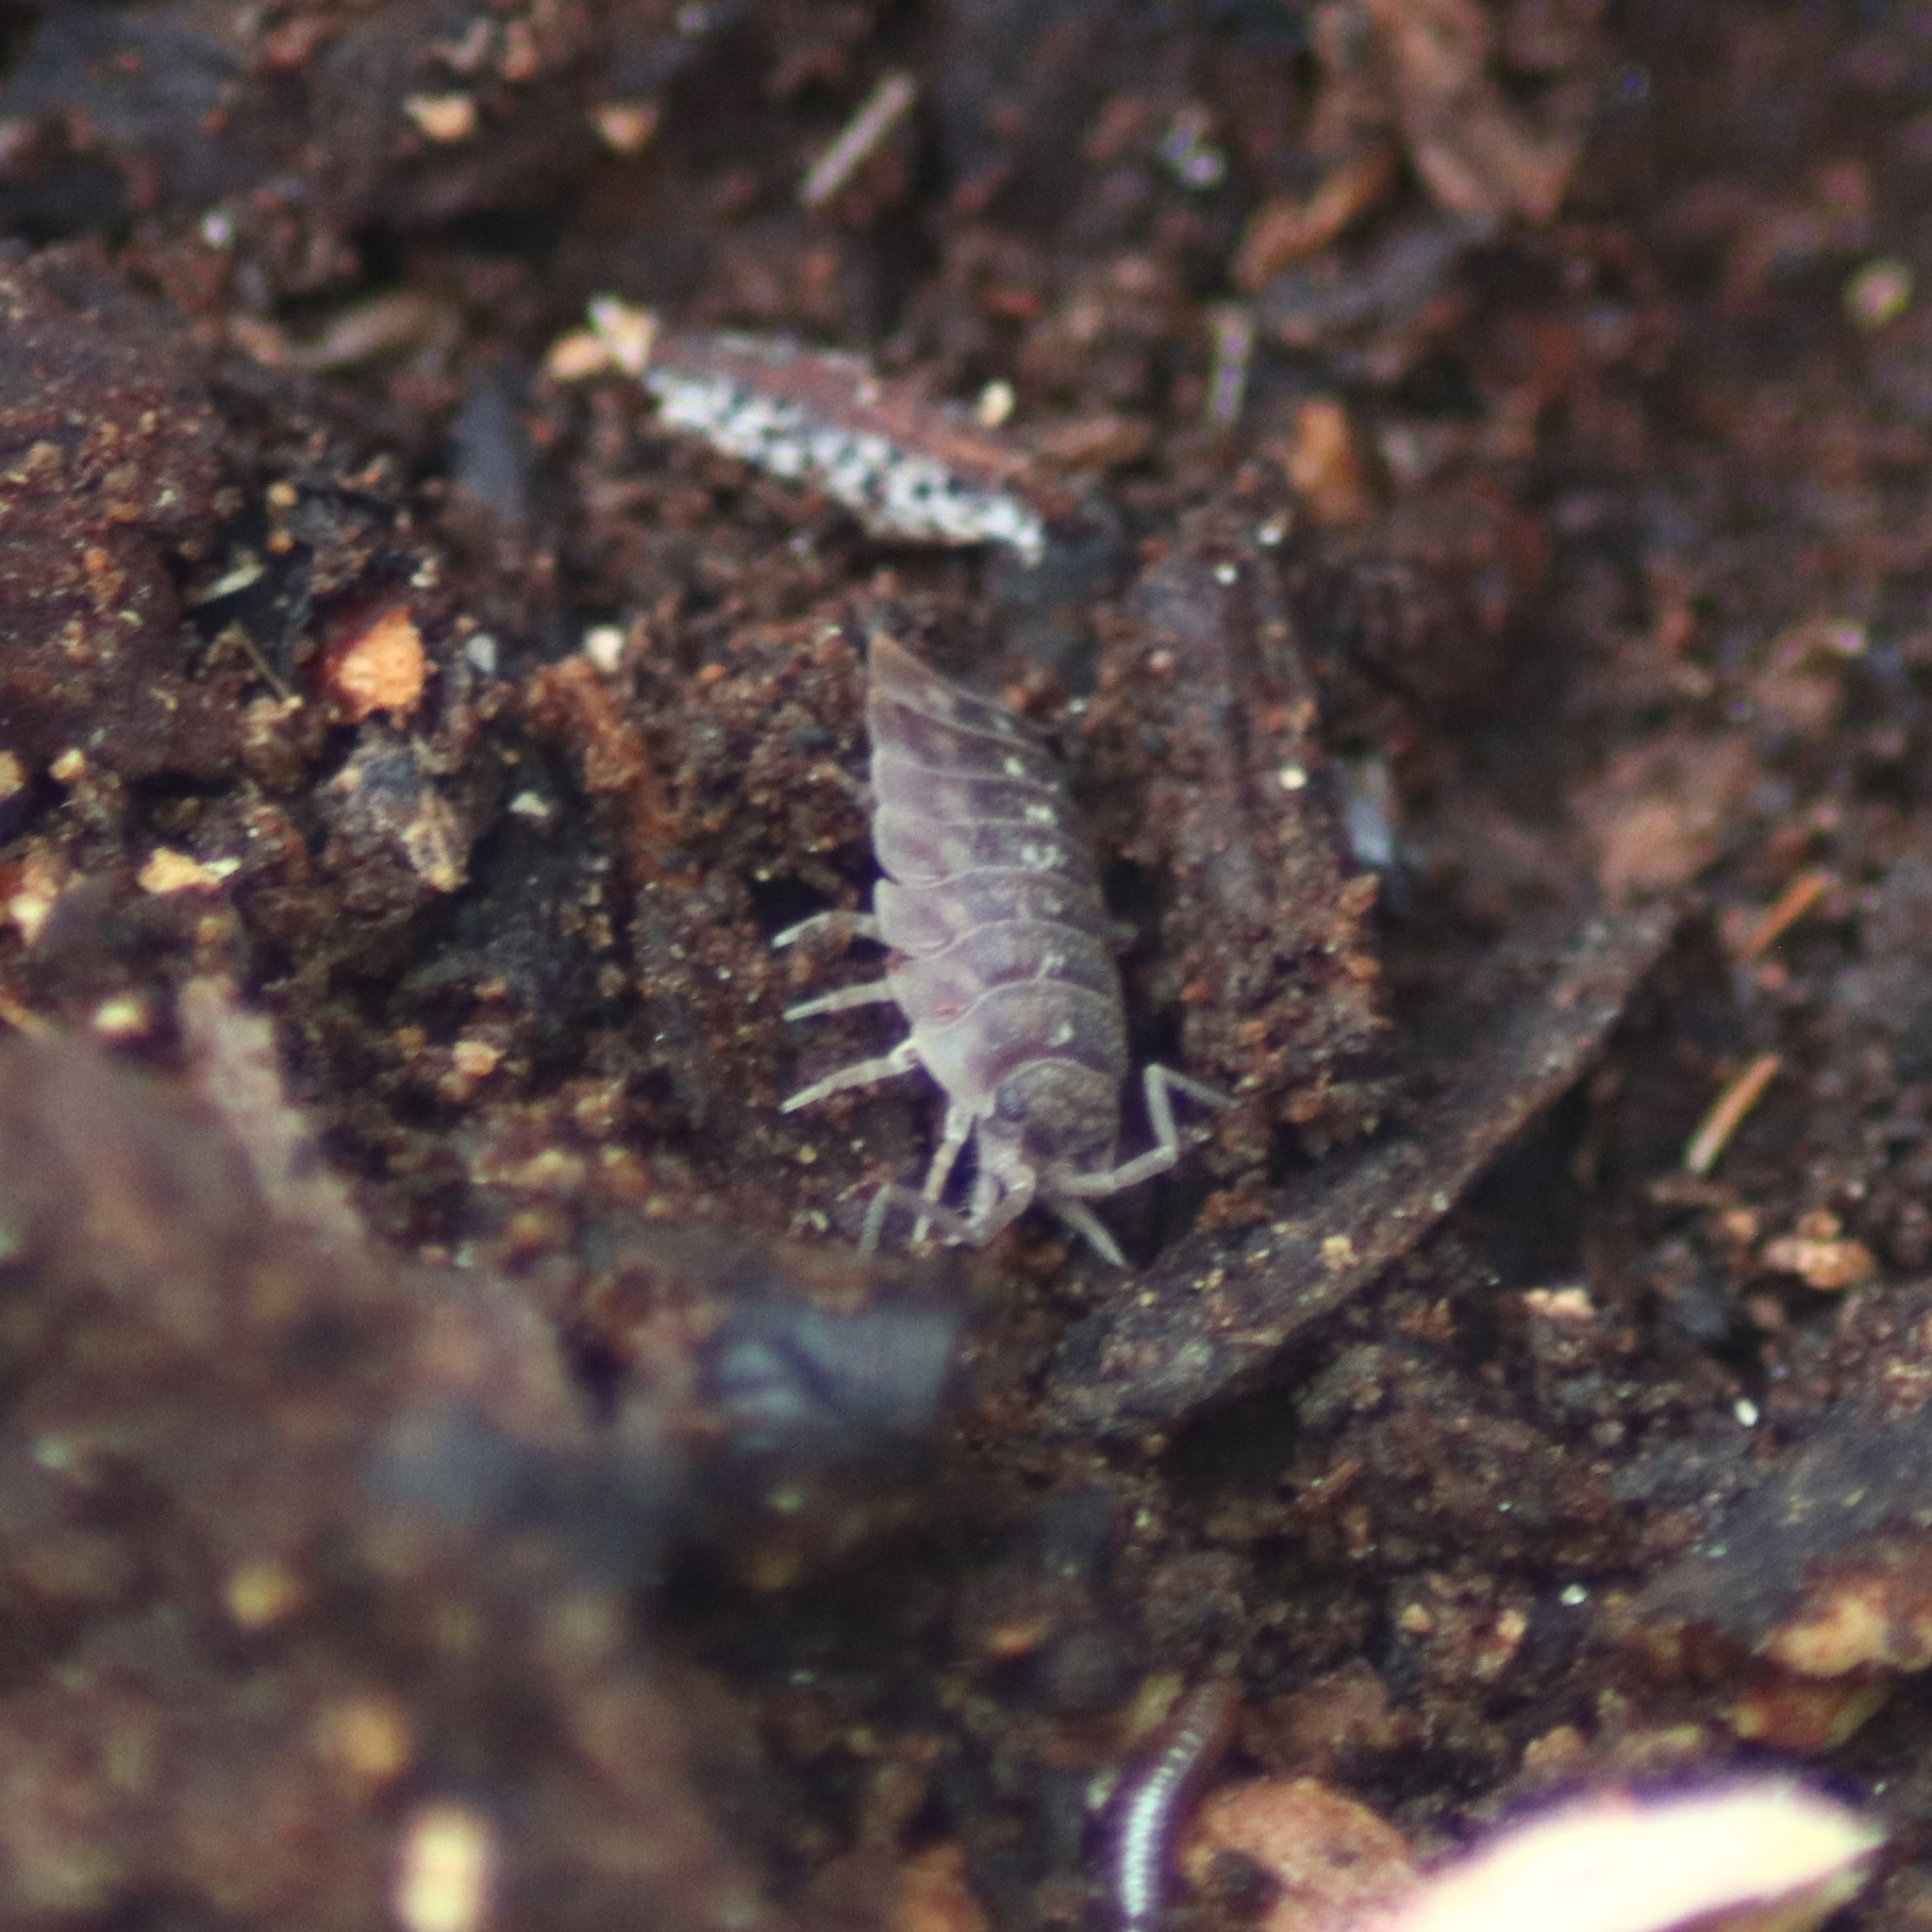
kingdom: Animalia
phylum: Arthropoda
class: Malacostraca
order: Isopoda
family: Oniscidae
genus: Oniscus
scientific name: Oniscus asellus
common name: Common shiny woodlouse
